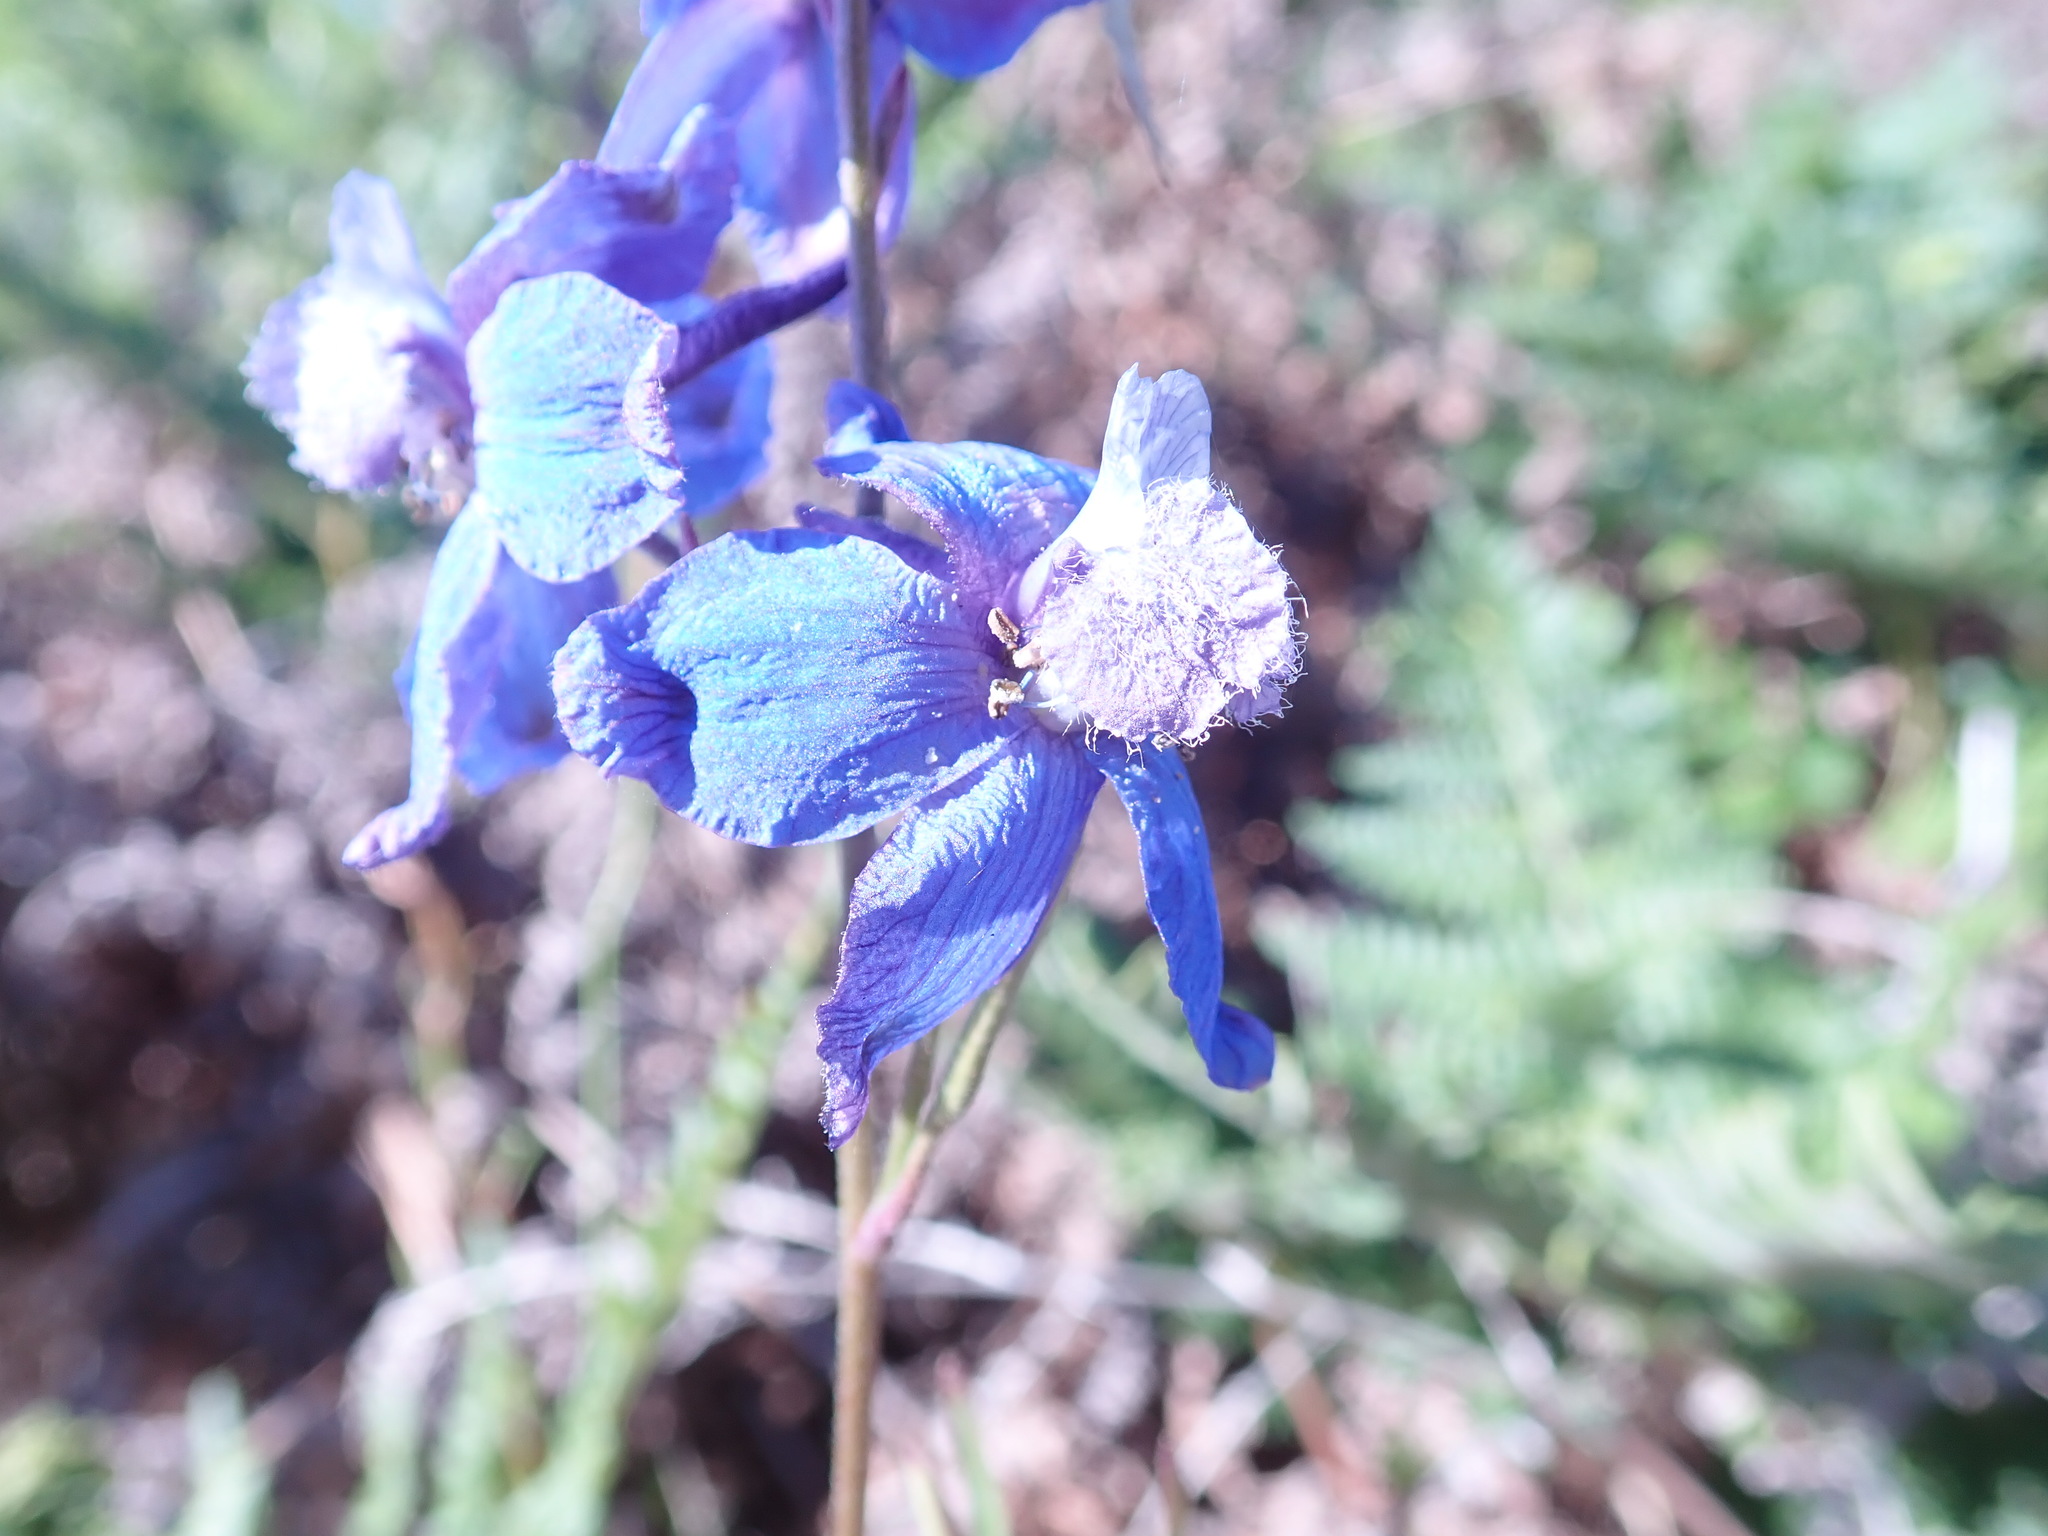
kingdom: Plantae
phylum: Tracheophyta
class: Magnoliopsida
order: Ranunculales
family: Ranunculaceae
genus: Delphinium
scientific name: Delphinium parryi
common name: Parry's larkspur
